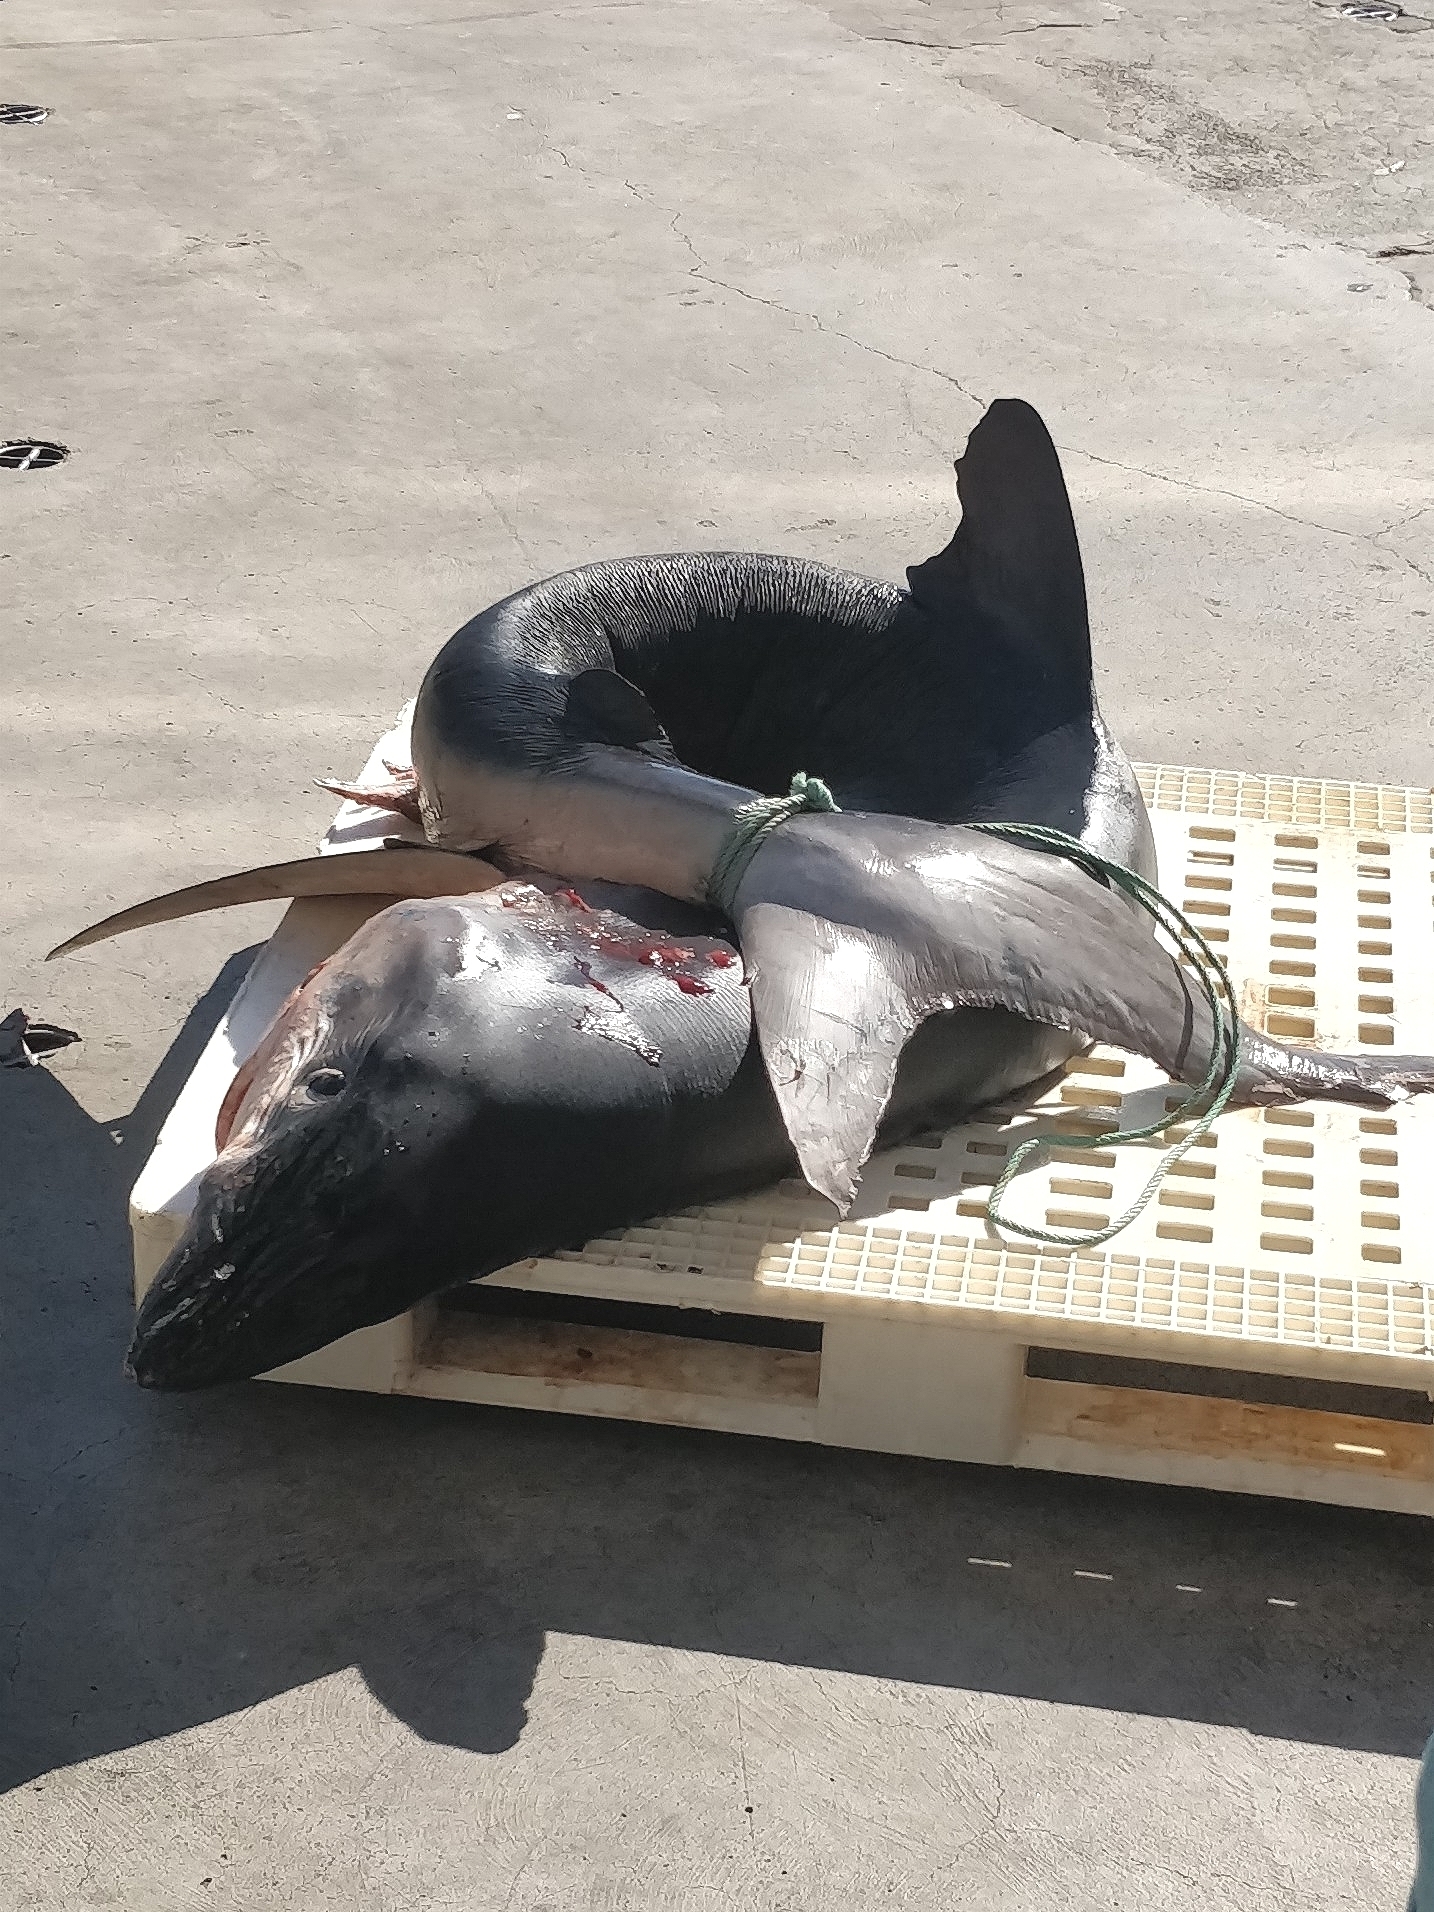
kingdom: Animalia
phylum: Chordata
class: Elasmobranchii
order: Carcharhiniformes
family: Carcharhinidae
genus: Prionace
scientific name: Prionace glauca
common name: Blue shark
